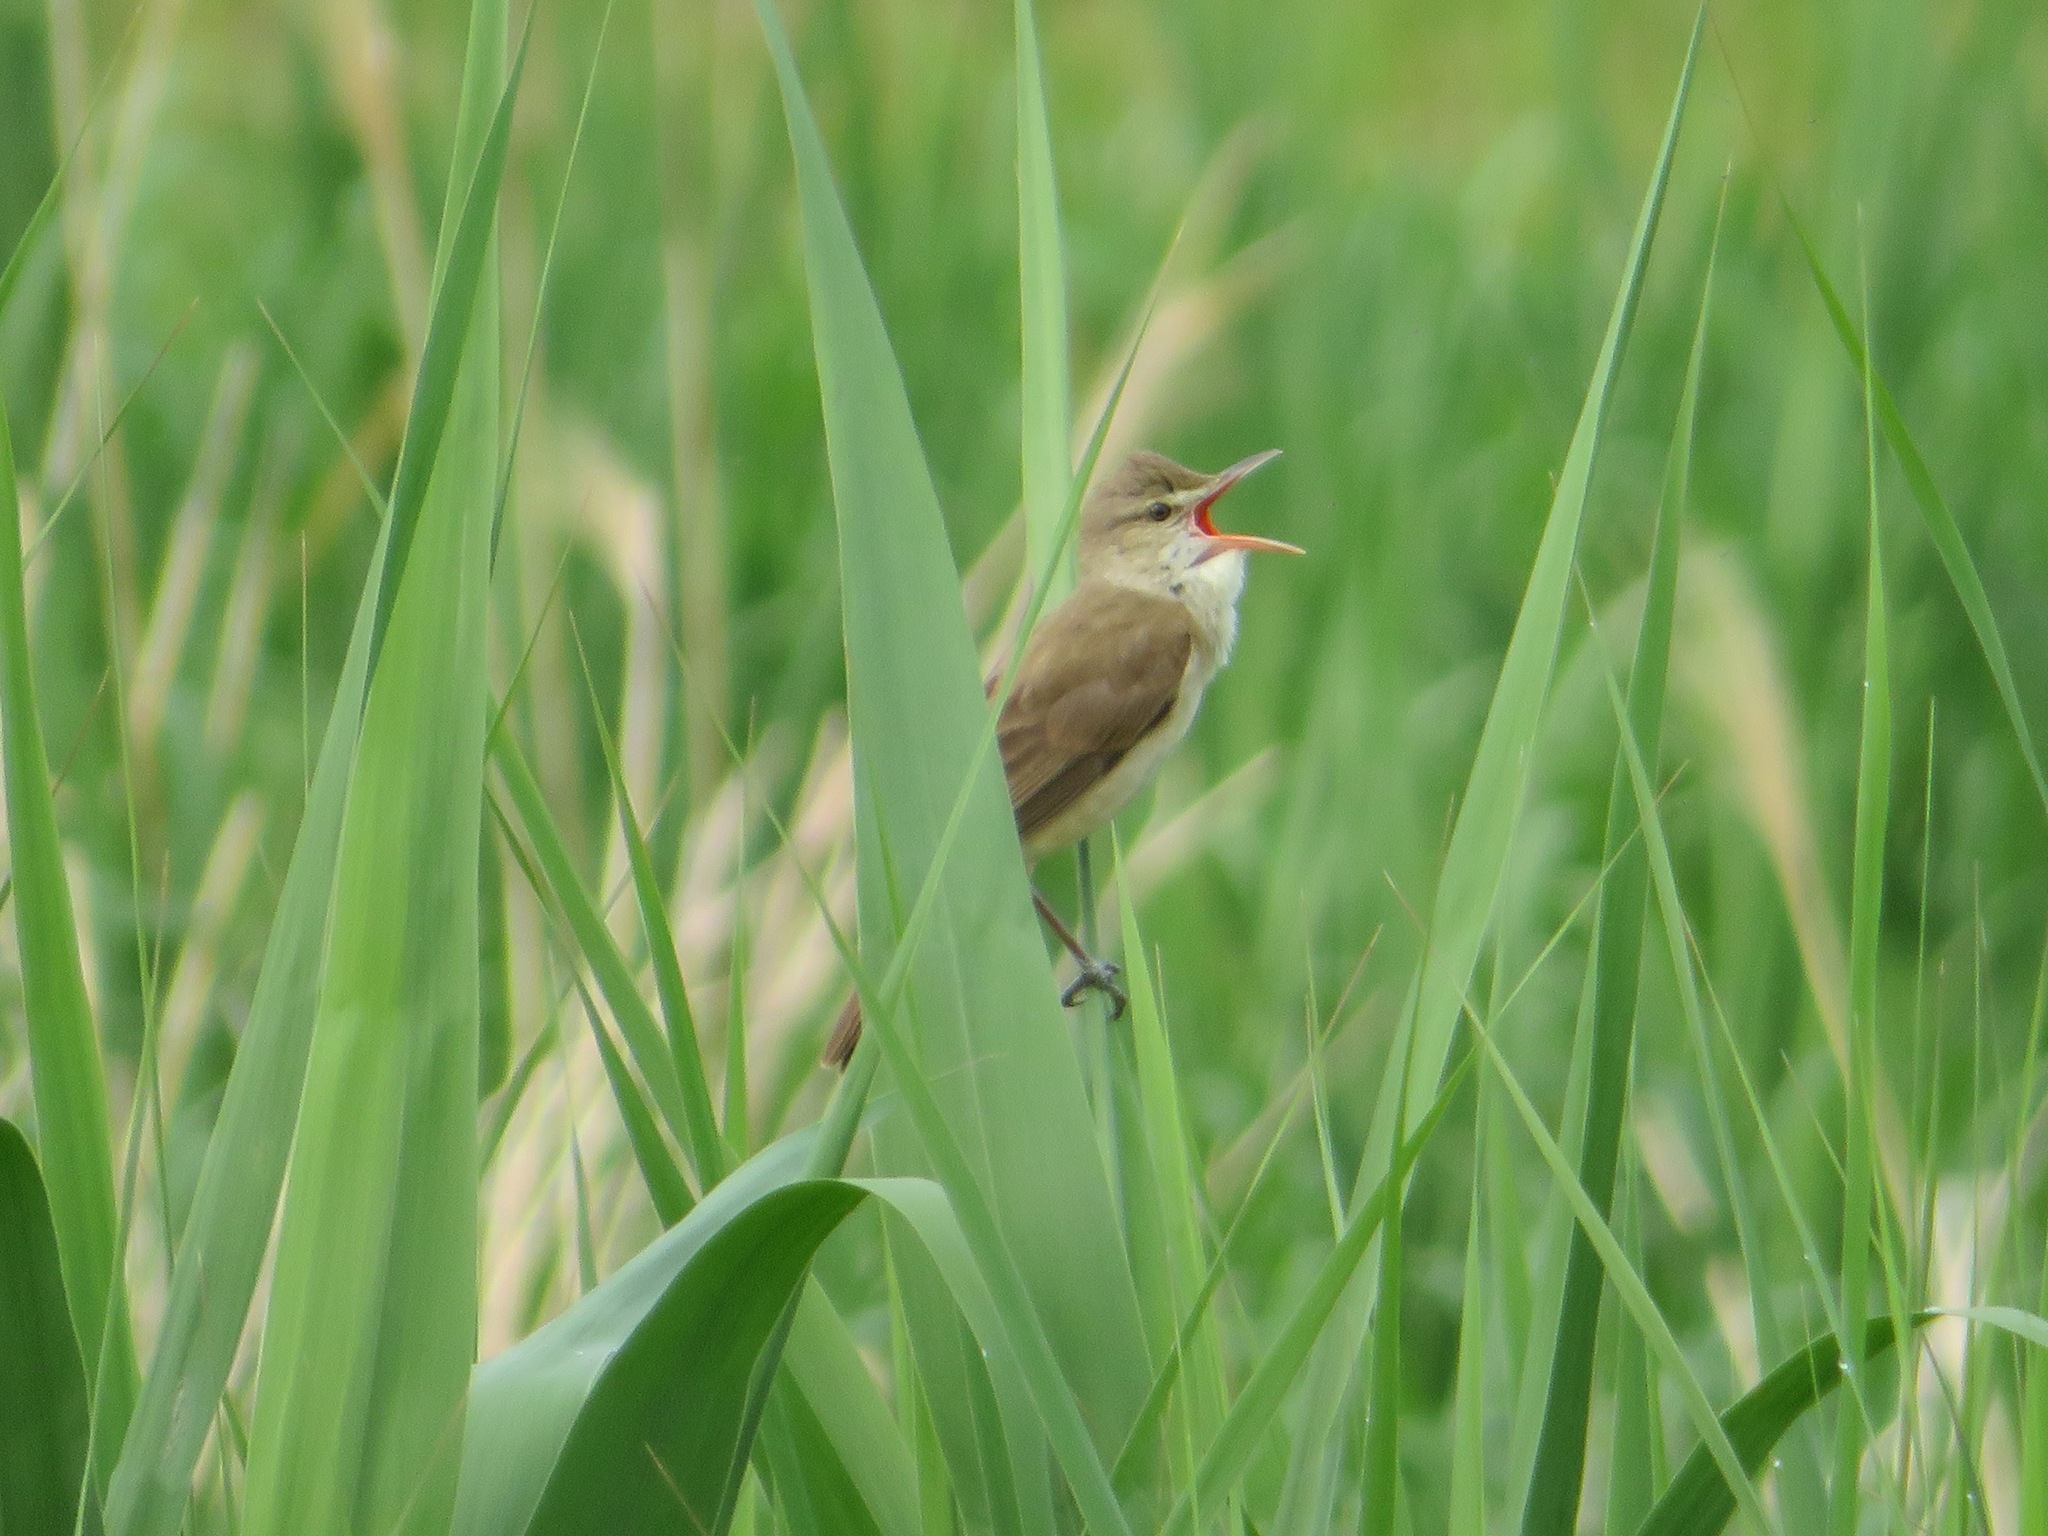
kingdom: Animalia
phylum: Chordata
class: Aves
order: Passeriformes
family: Acrocephalidae
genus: Acrocephalus
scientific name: Acrocephalus orientalis
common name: Oriental reed warbler
